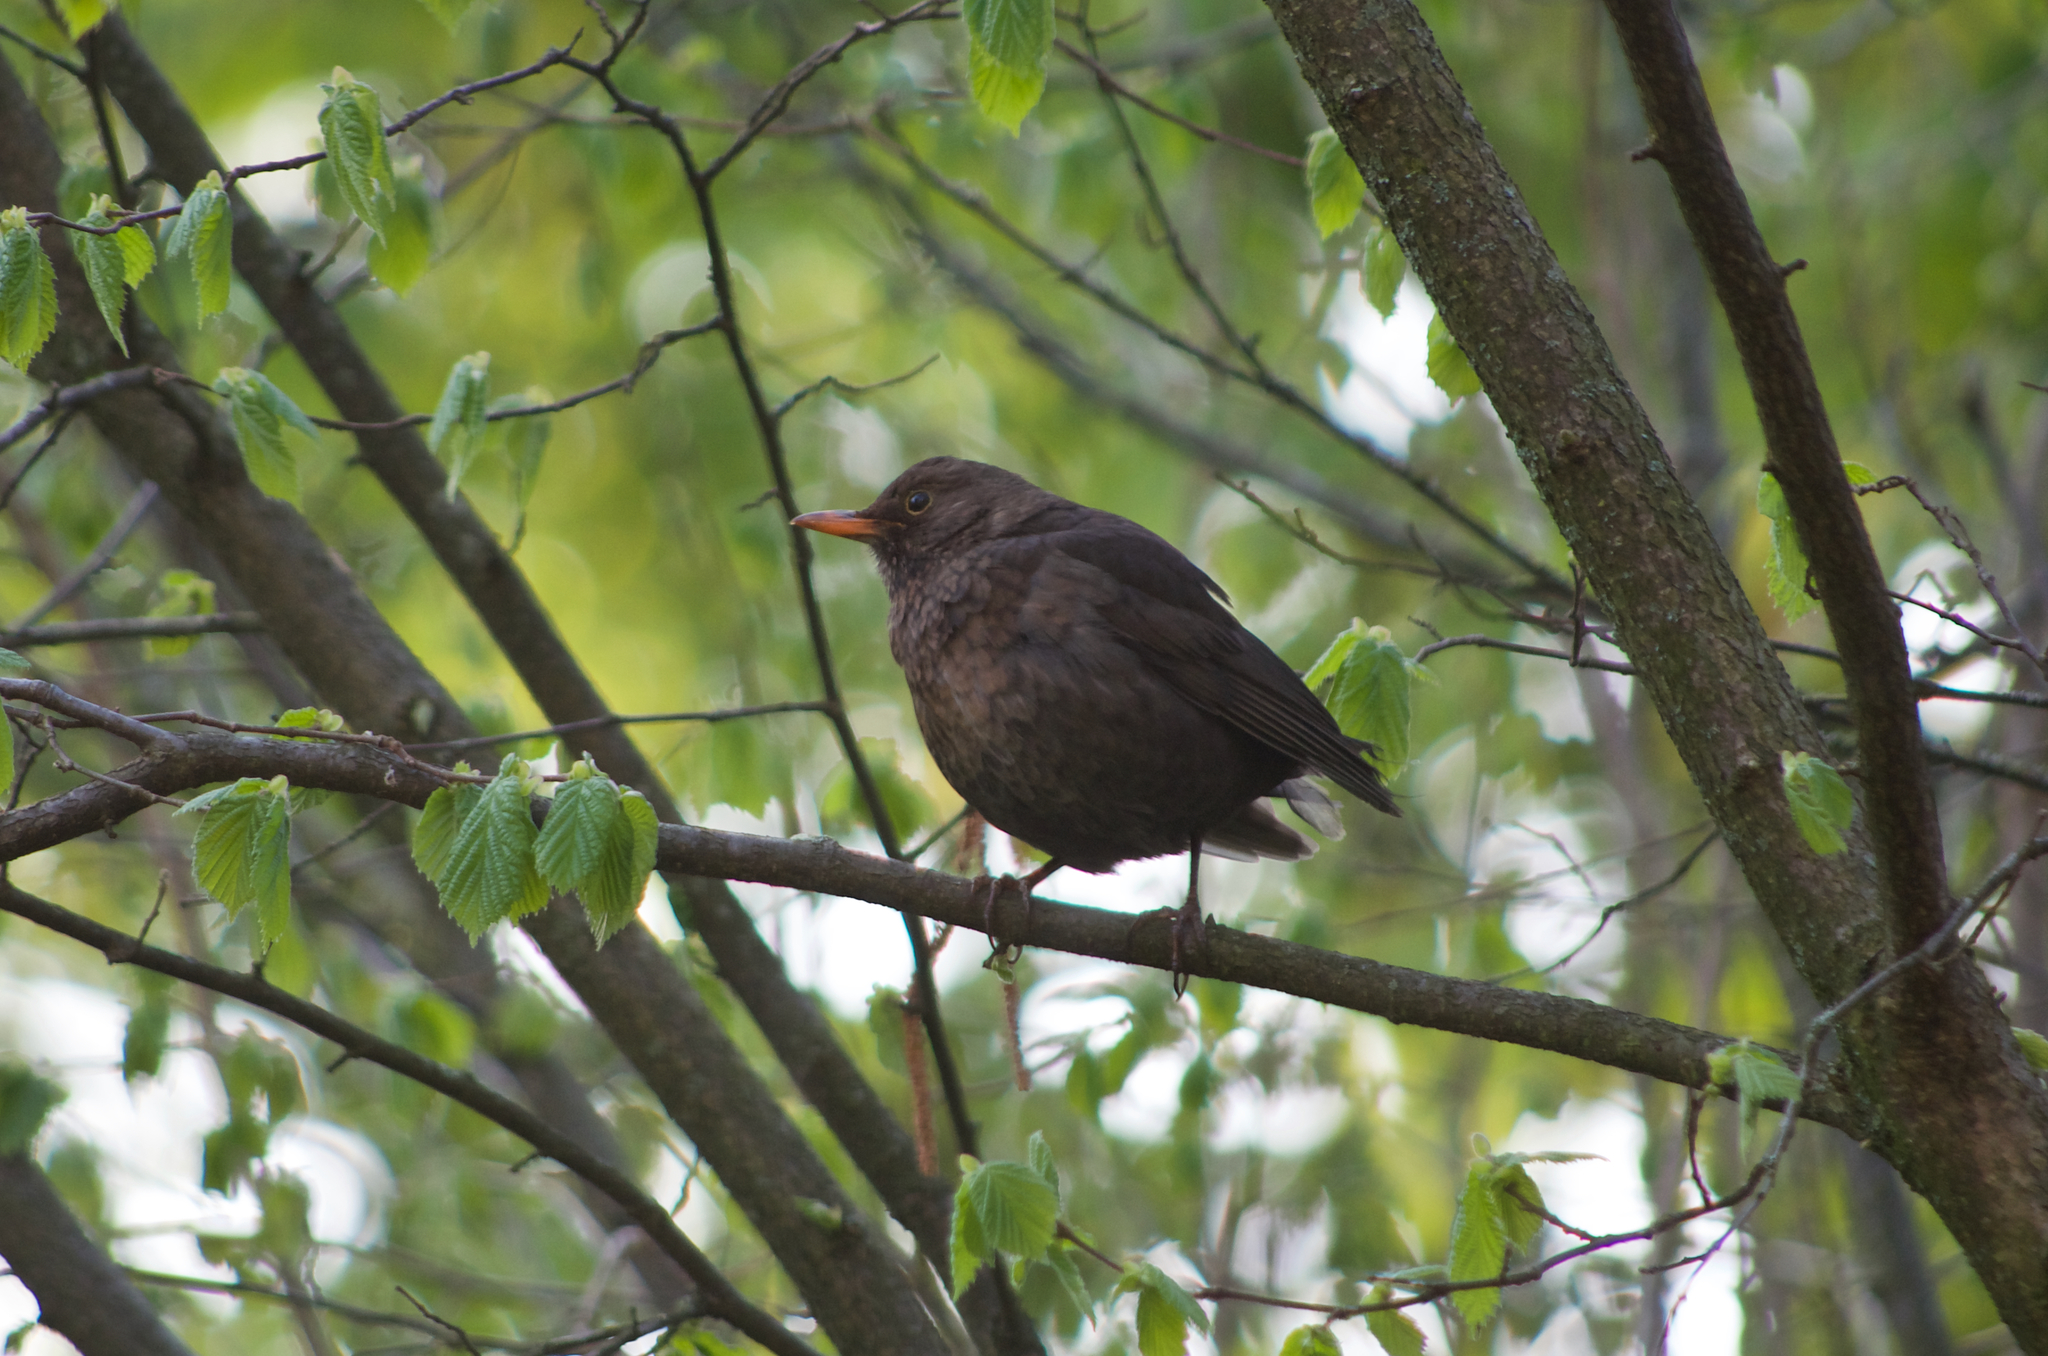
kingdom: Animalia
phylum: Chordata
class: Aves
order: Passeriformes
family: Turdidae
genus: Turdus
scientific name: Turdus merula
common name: Common blackbird
